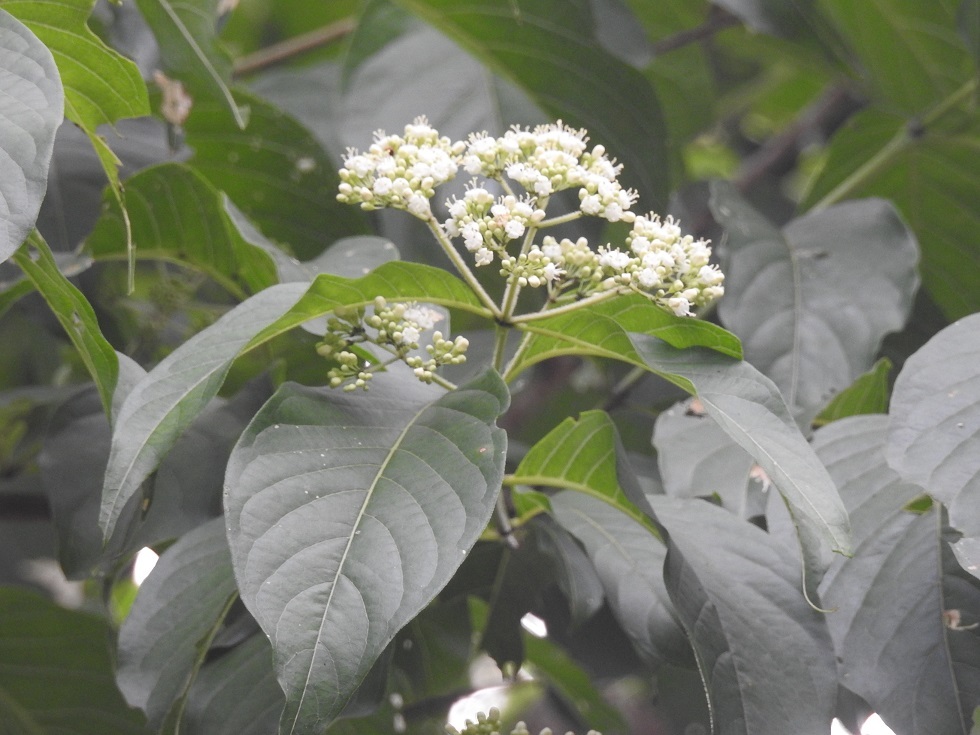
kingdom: Plantae
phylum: Tracheophyta
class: Magnoliopsida
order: Gentianales
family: Rubiaceae
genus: Machaonia
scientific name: Machaonia erythrocarpa
